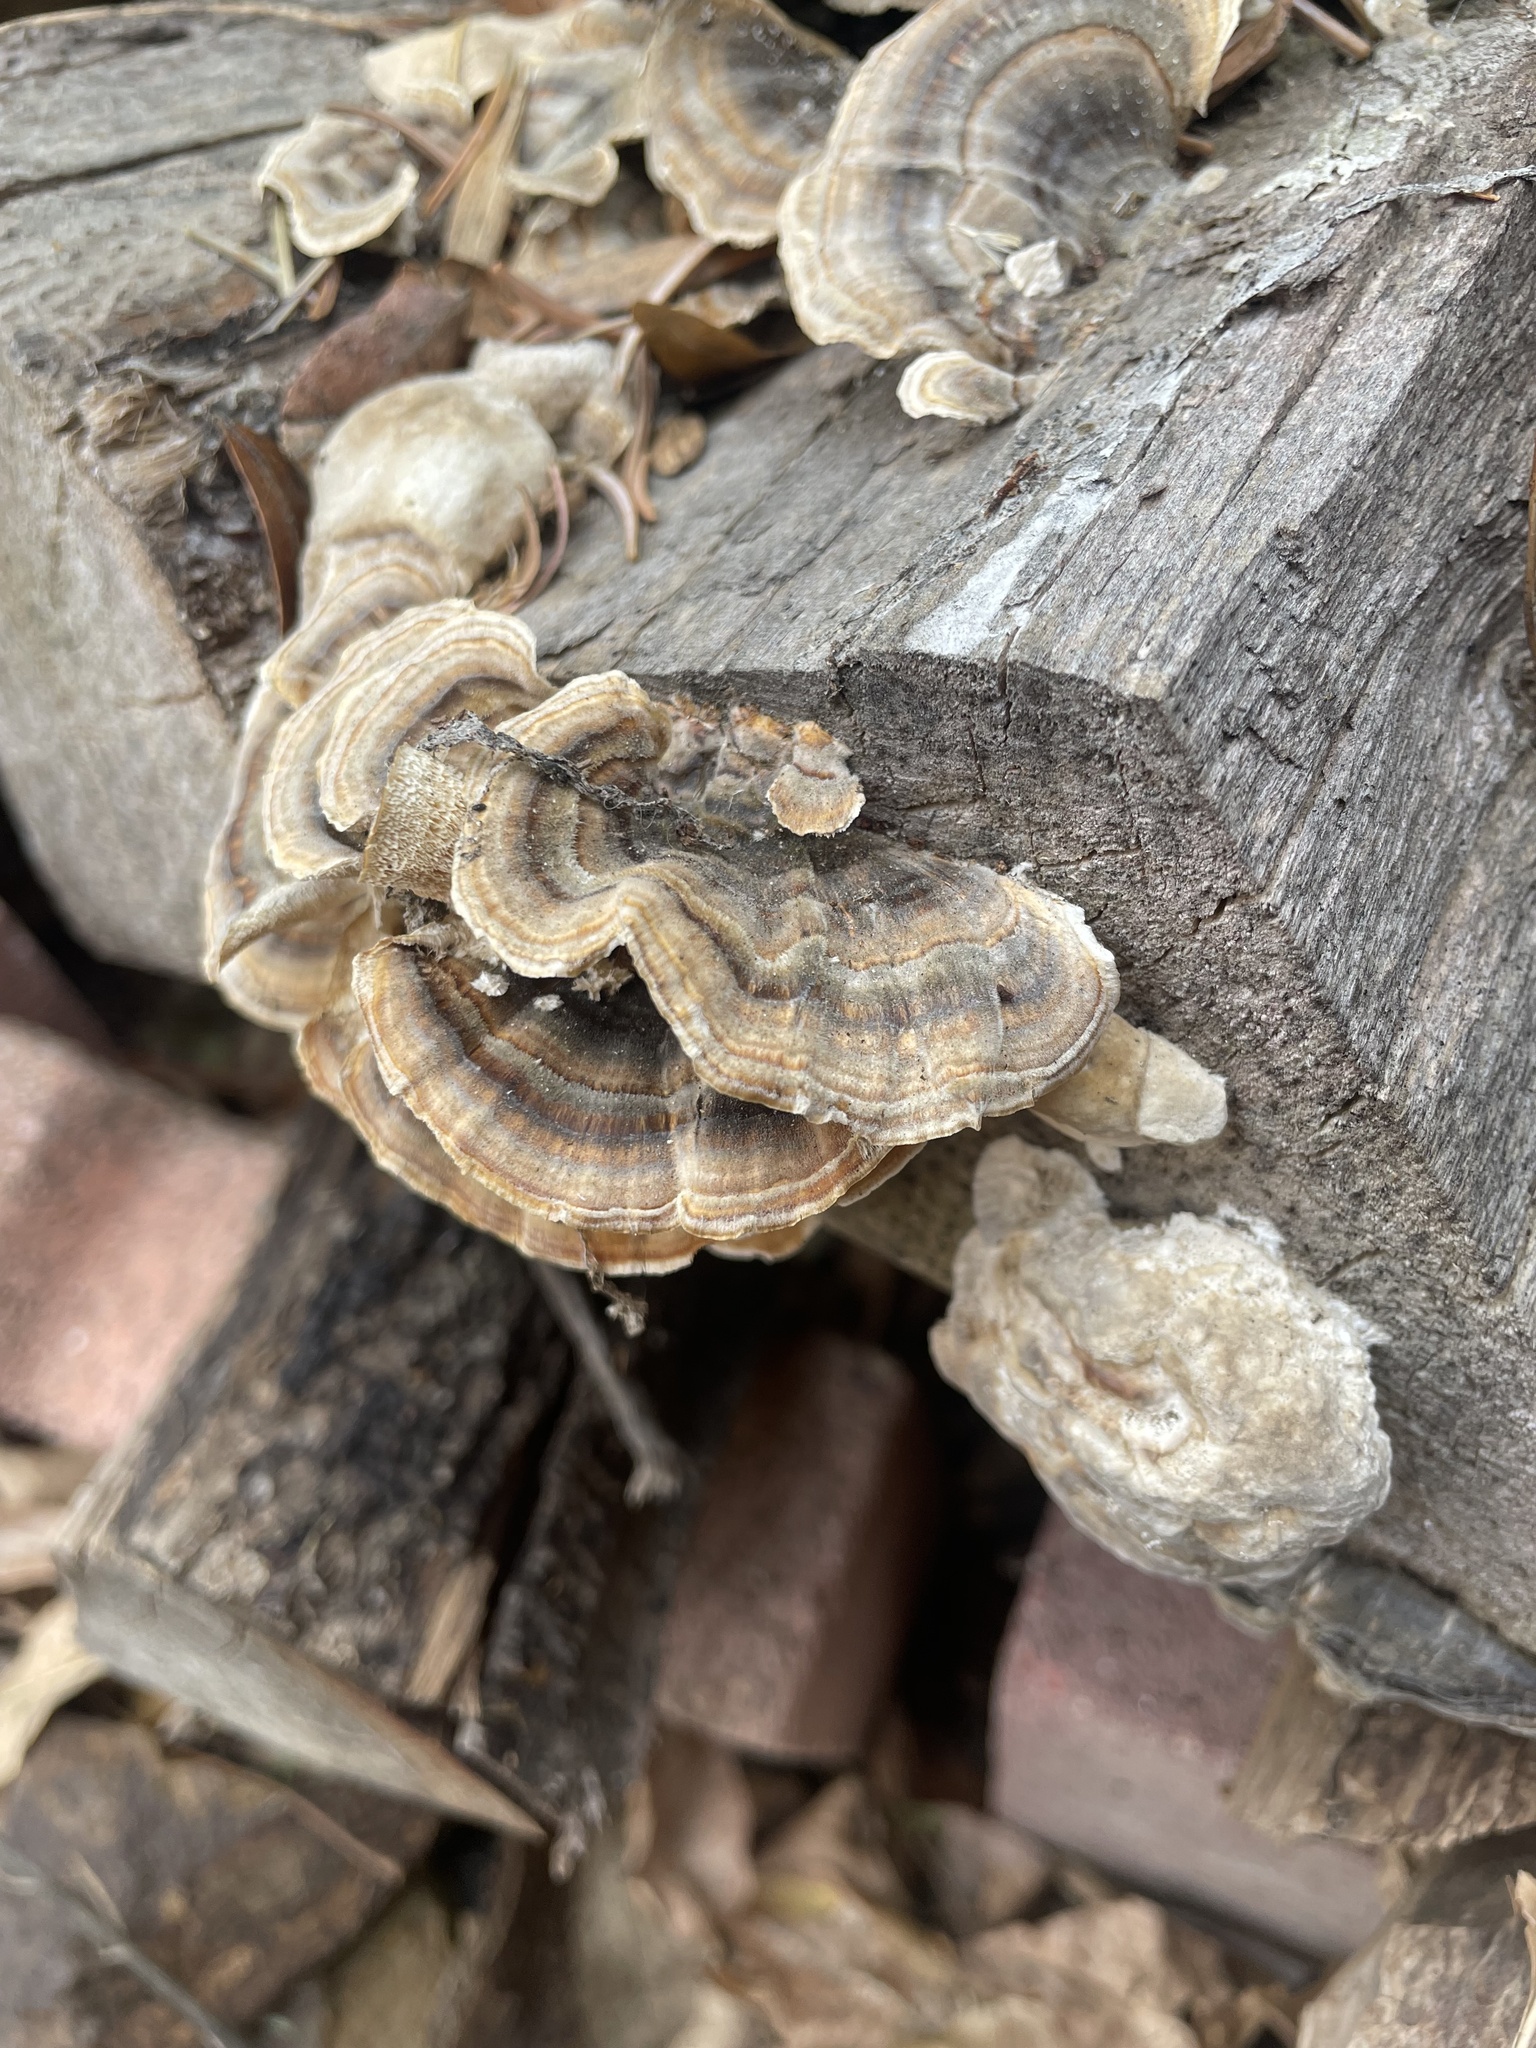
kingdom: Fungi
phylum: Basidiomycota
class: Agaricomycetes
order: Polyporales
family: Polyporaceae
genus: Trametes
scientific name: Trametes versicolor
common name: Turkeytail
